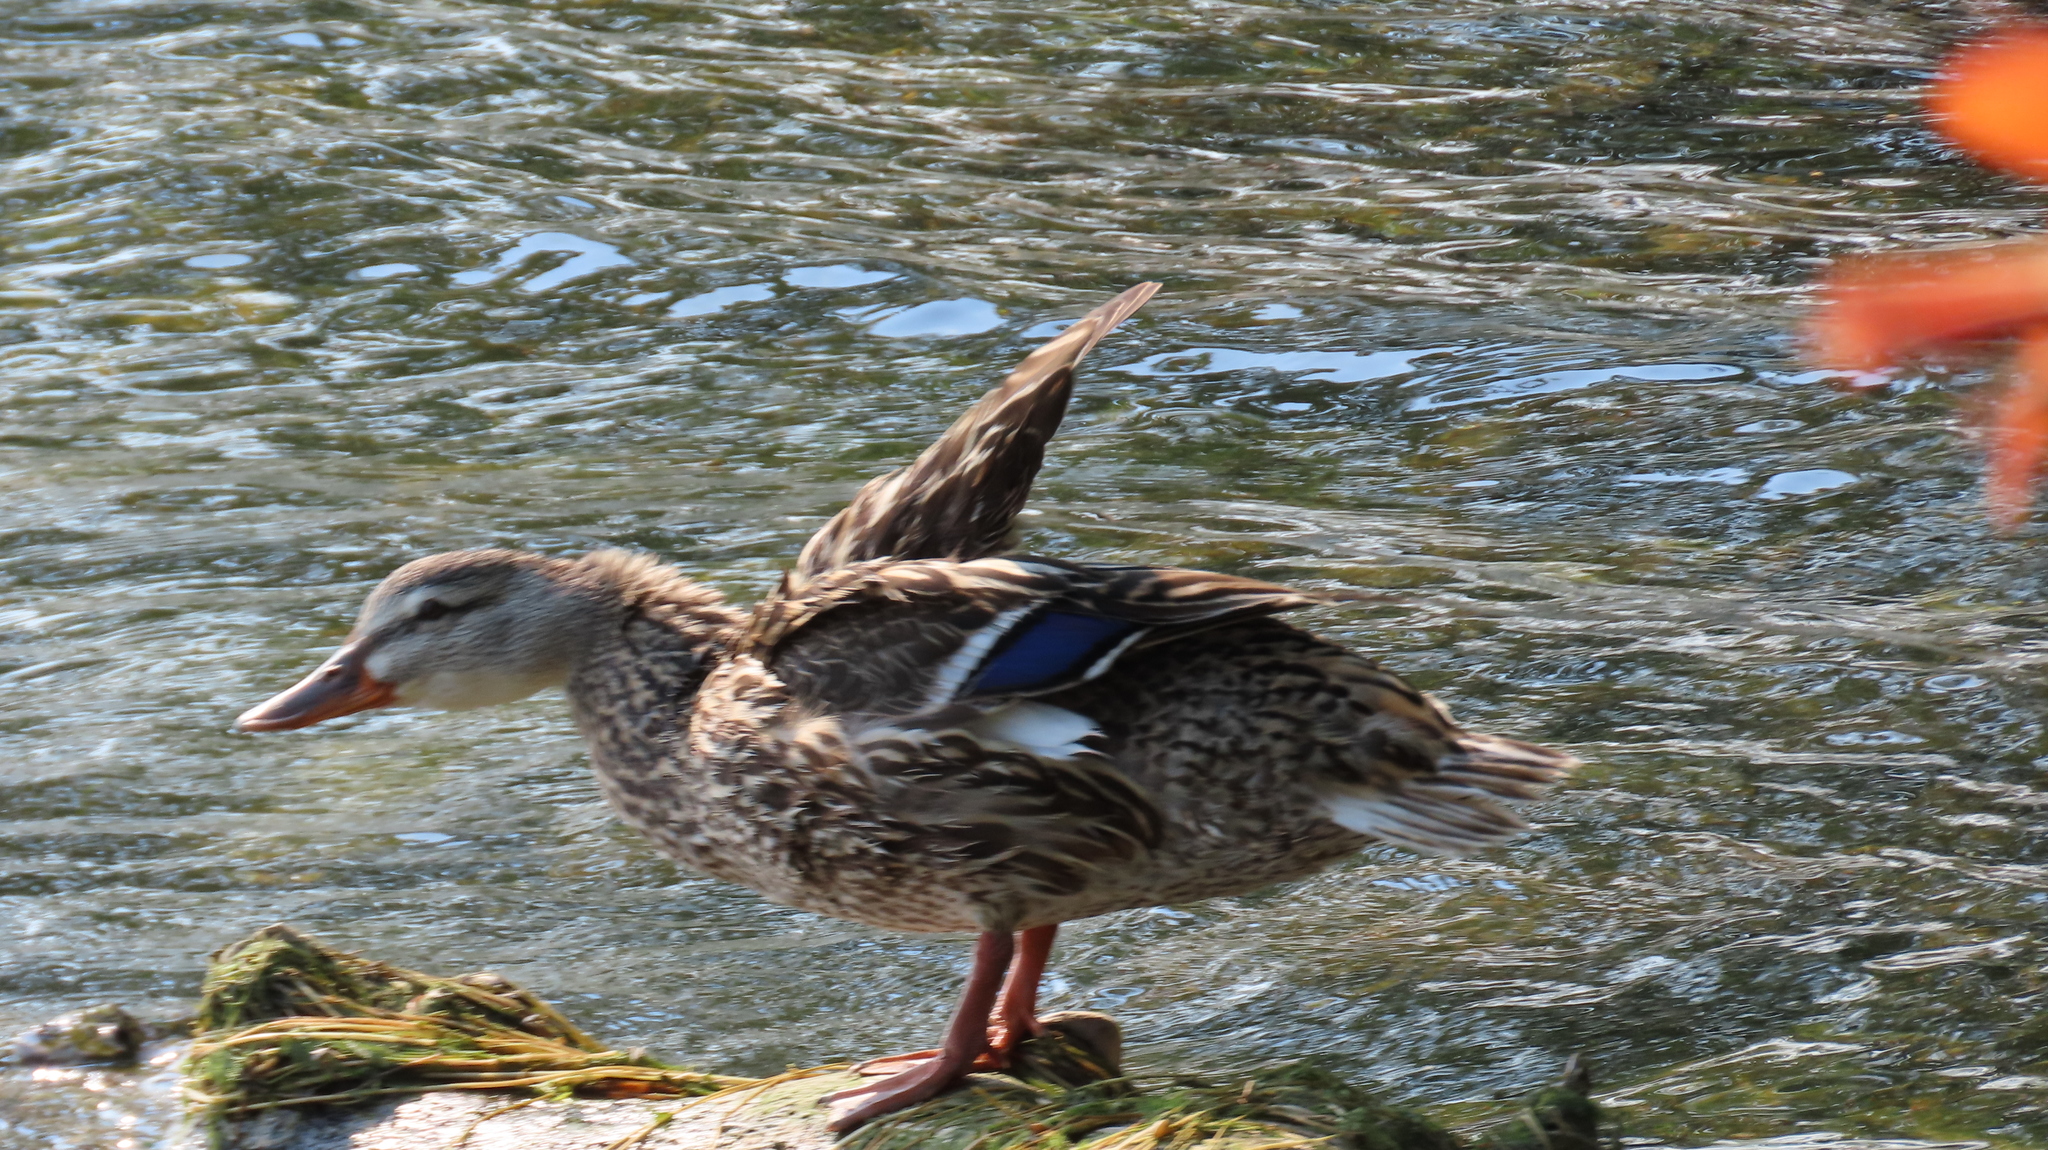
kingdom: Animalia
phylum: Chordata
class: Aves
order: Anseriformes
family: Anatidae
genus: Anas
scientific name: Anas platyrhynchos
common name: Mallard
